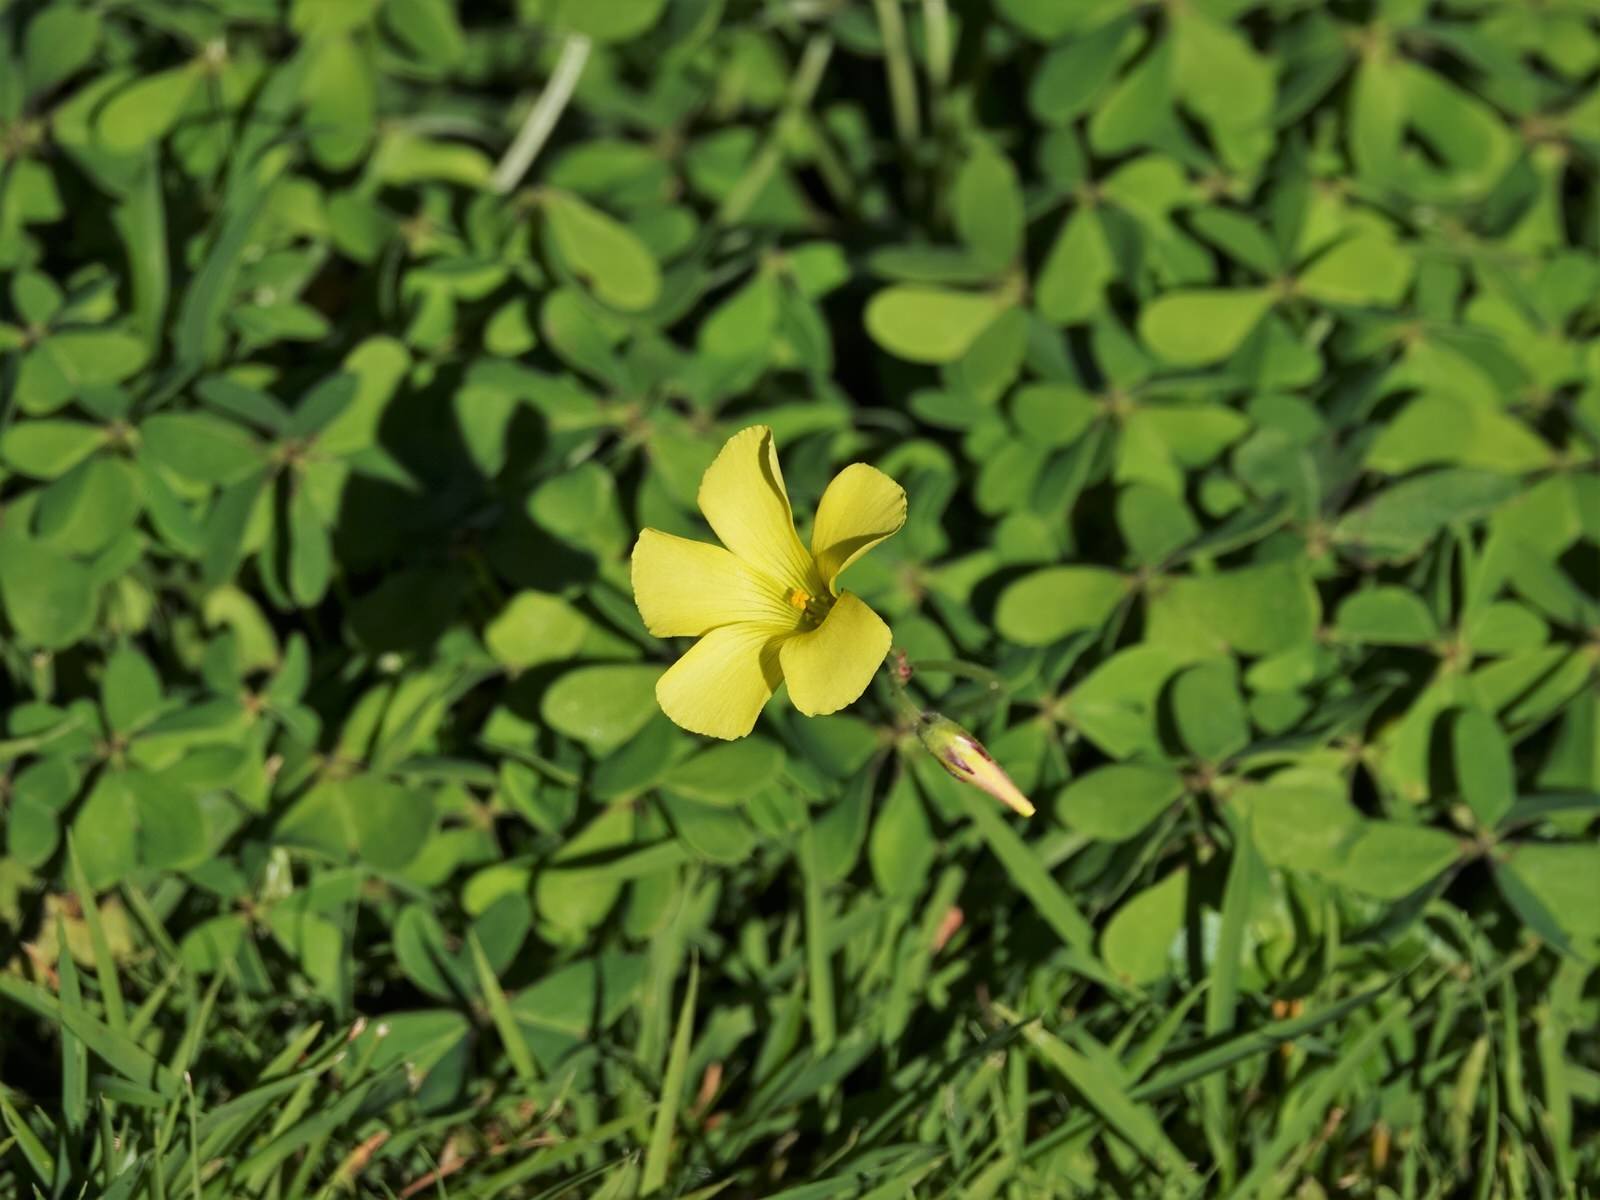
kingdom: Plantae
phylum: Tracheophyta
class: Magnoliopsida
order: Oxalidales
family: Oxalidaceae
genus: Oxalis
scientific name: Oxalis pes-caprae
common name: Bermuda-buttercup
